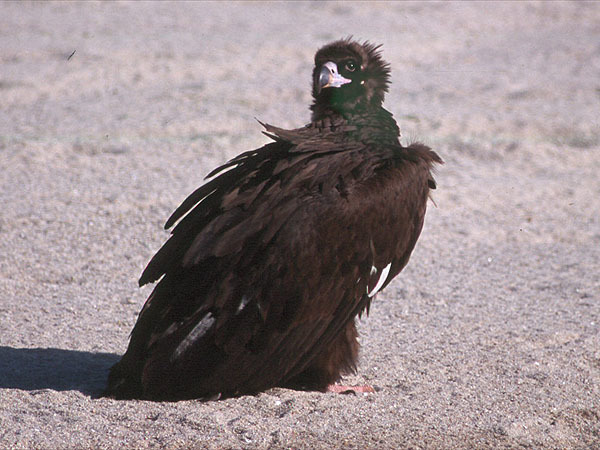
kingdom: Animalia
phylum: Chordata
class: Aves
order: Accipitriformes
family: Accipitridae
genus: Aegypius
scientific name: Aegypius monachus
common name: Cinereous vulture
